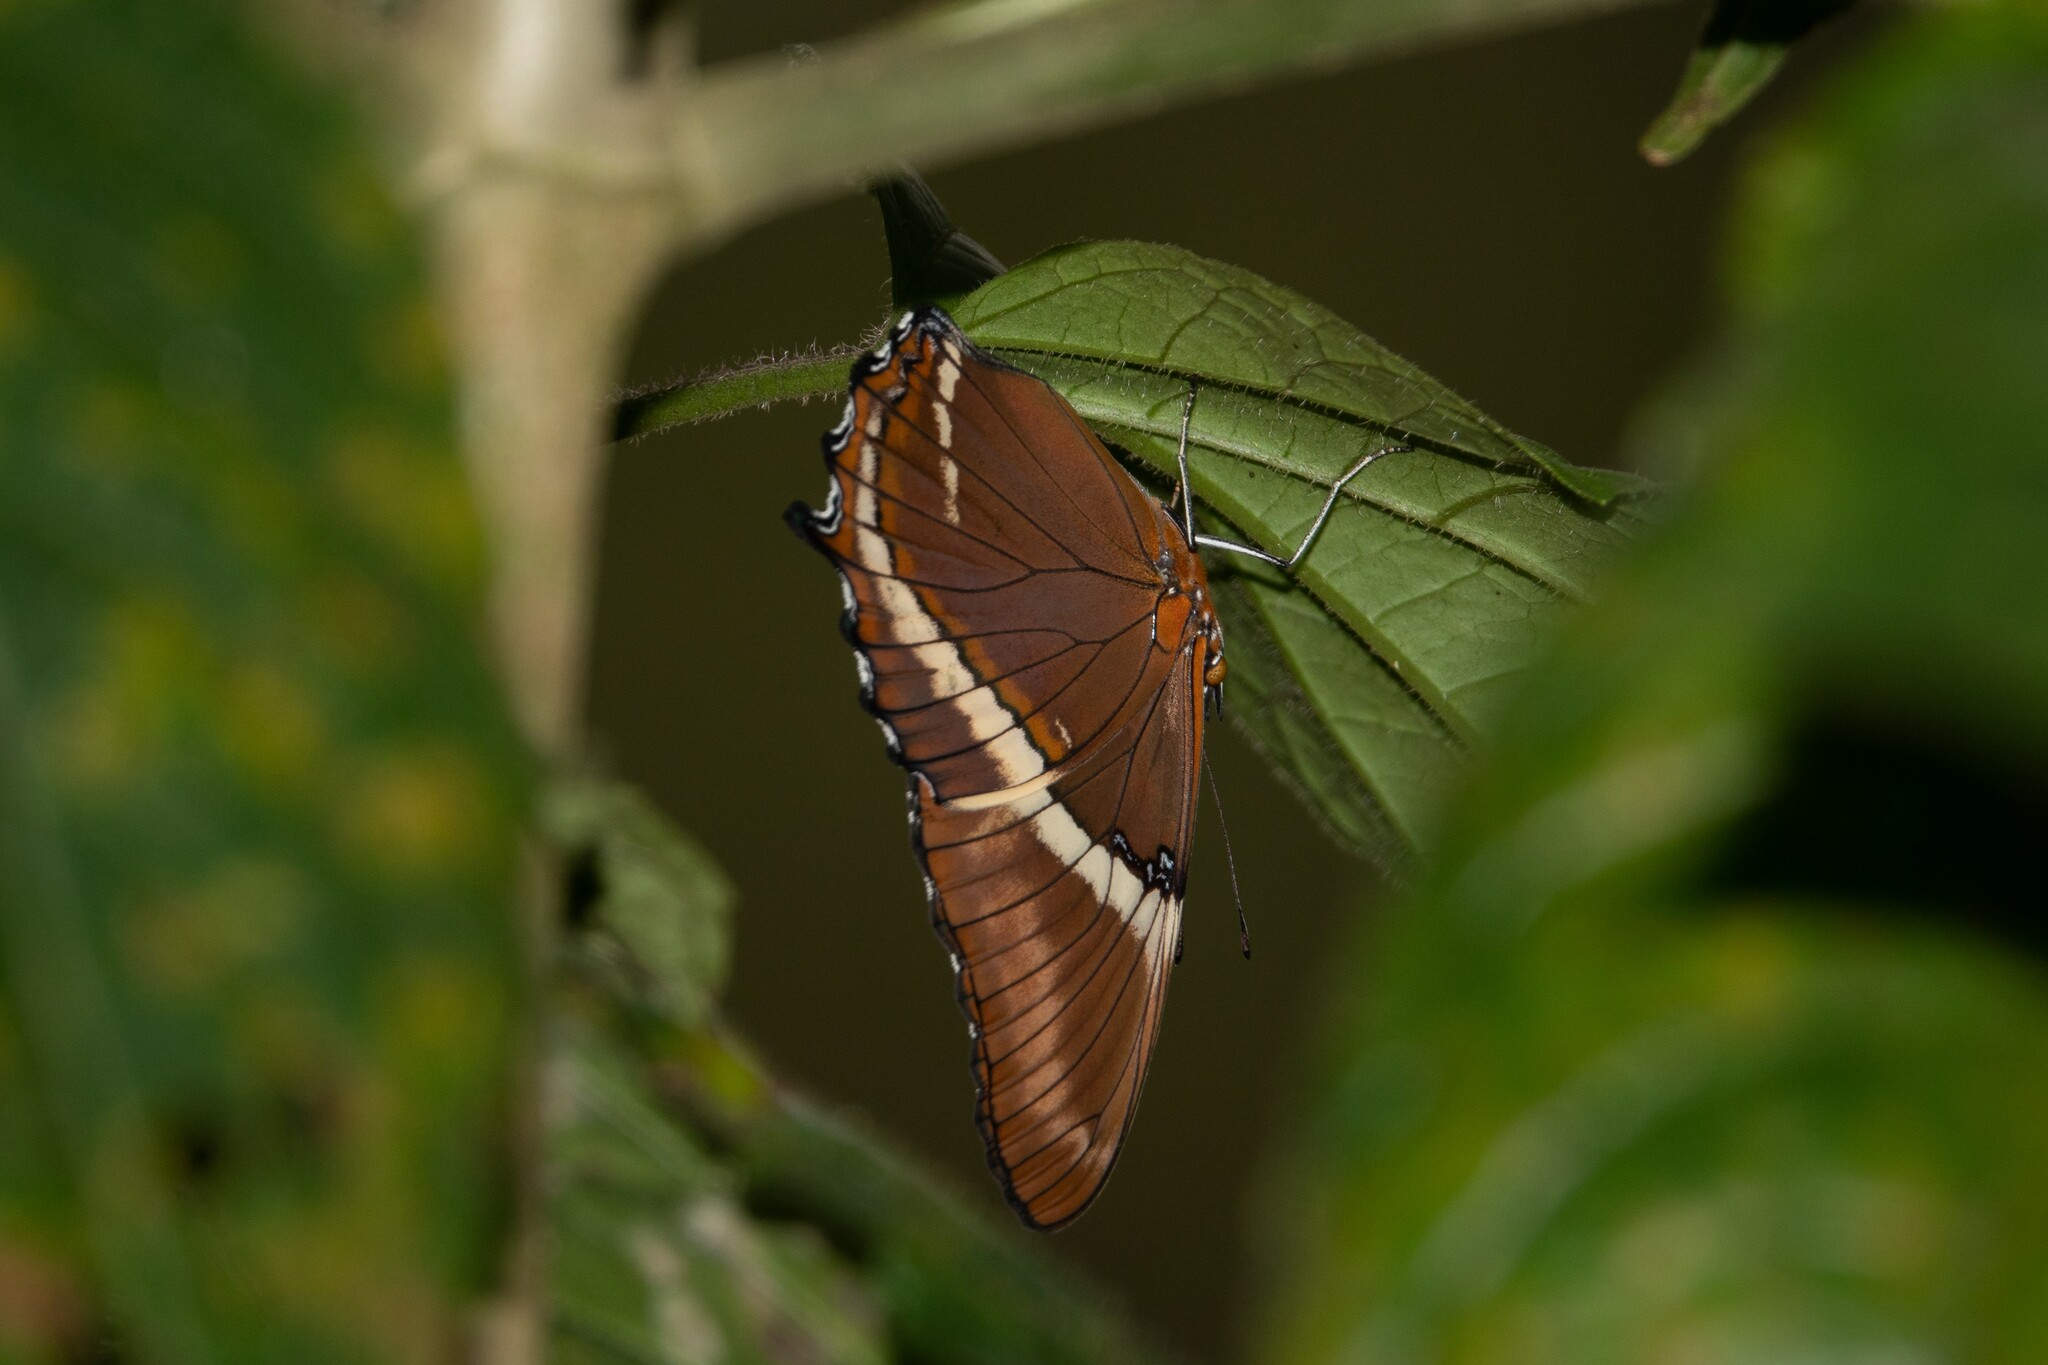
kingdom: Animalia
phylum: Arthropoda
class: Insecta
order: Lepidoptera
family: Nymphalidae
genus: Siproeta
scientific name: Siproeta epaphus
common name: Rusty-tipped page
